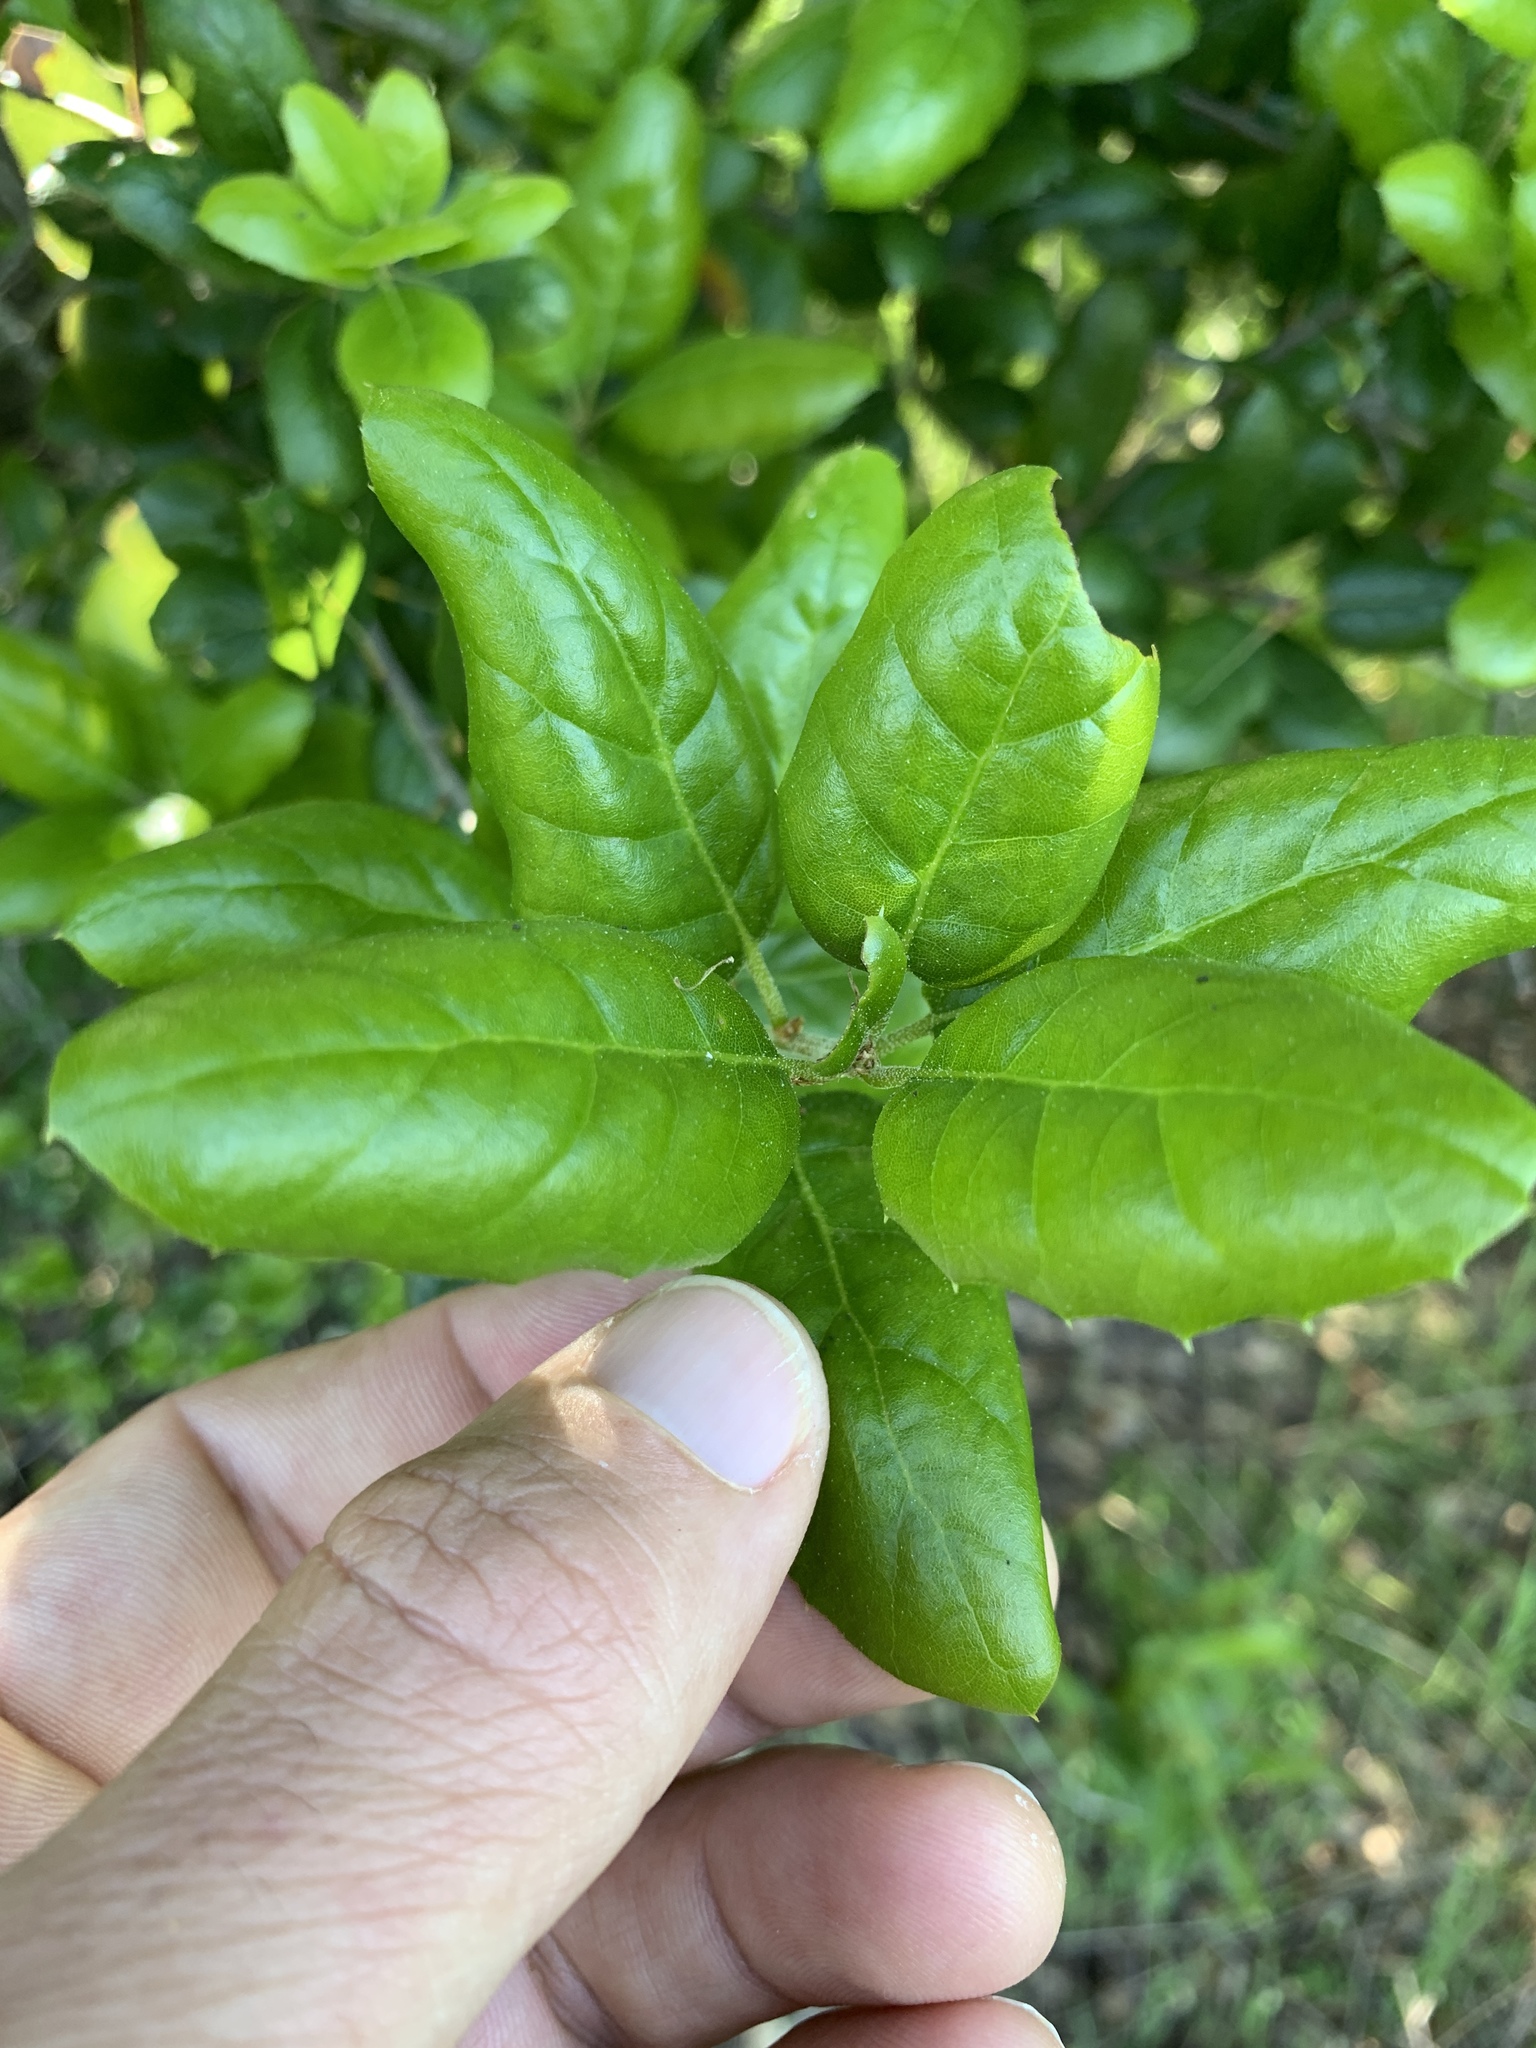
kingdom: Plantae
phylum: Tracheophyta
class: Magnoliopsida
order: Fagales
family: Fagaceae
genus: Quercus
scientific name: Quercus agrifolia
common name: California live oak
